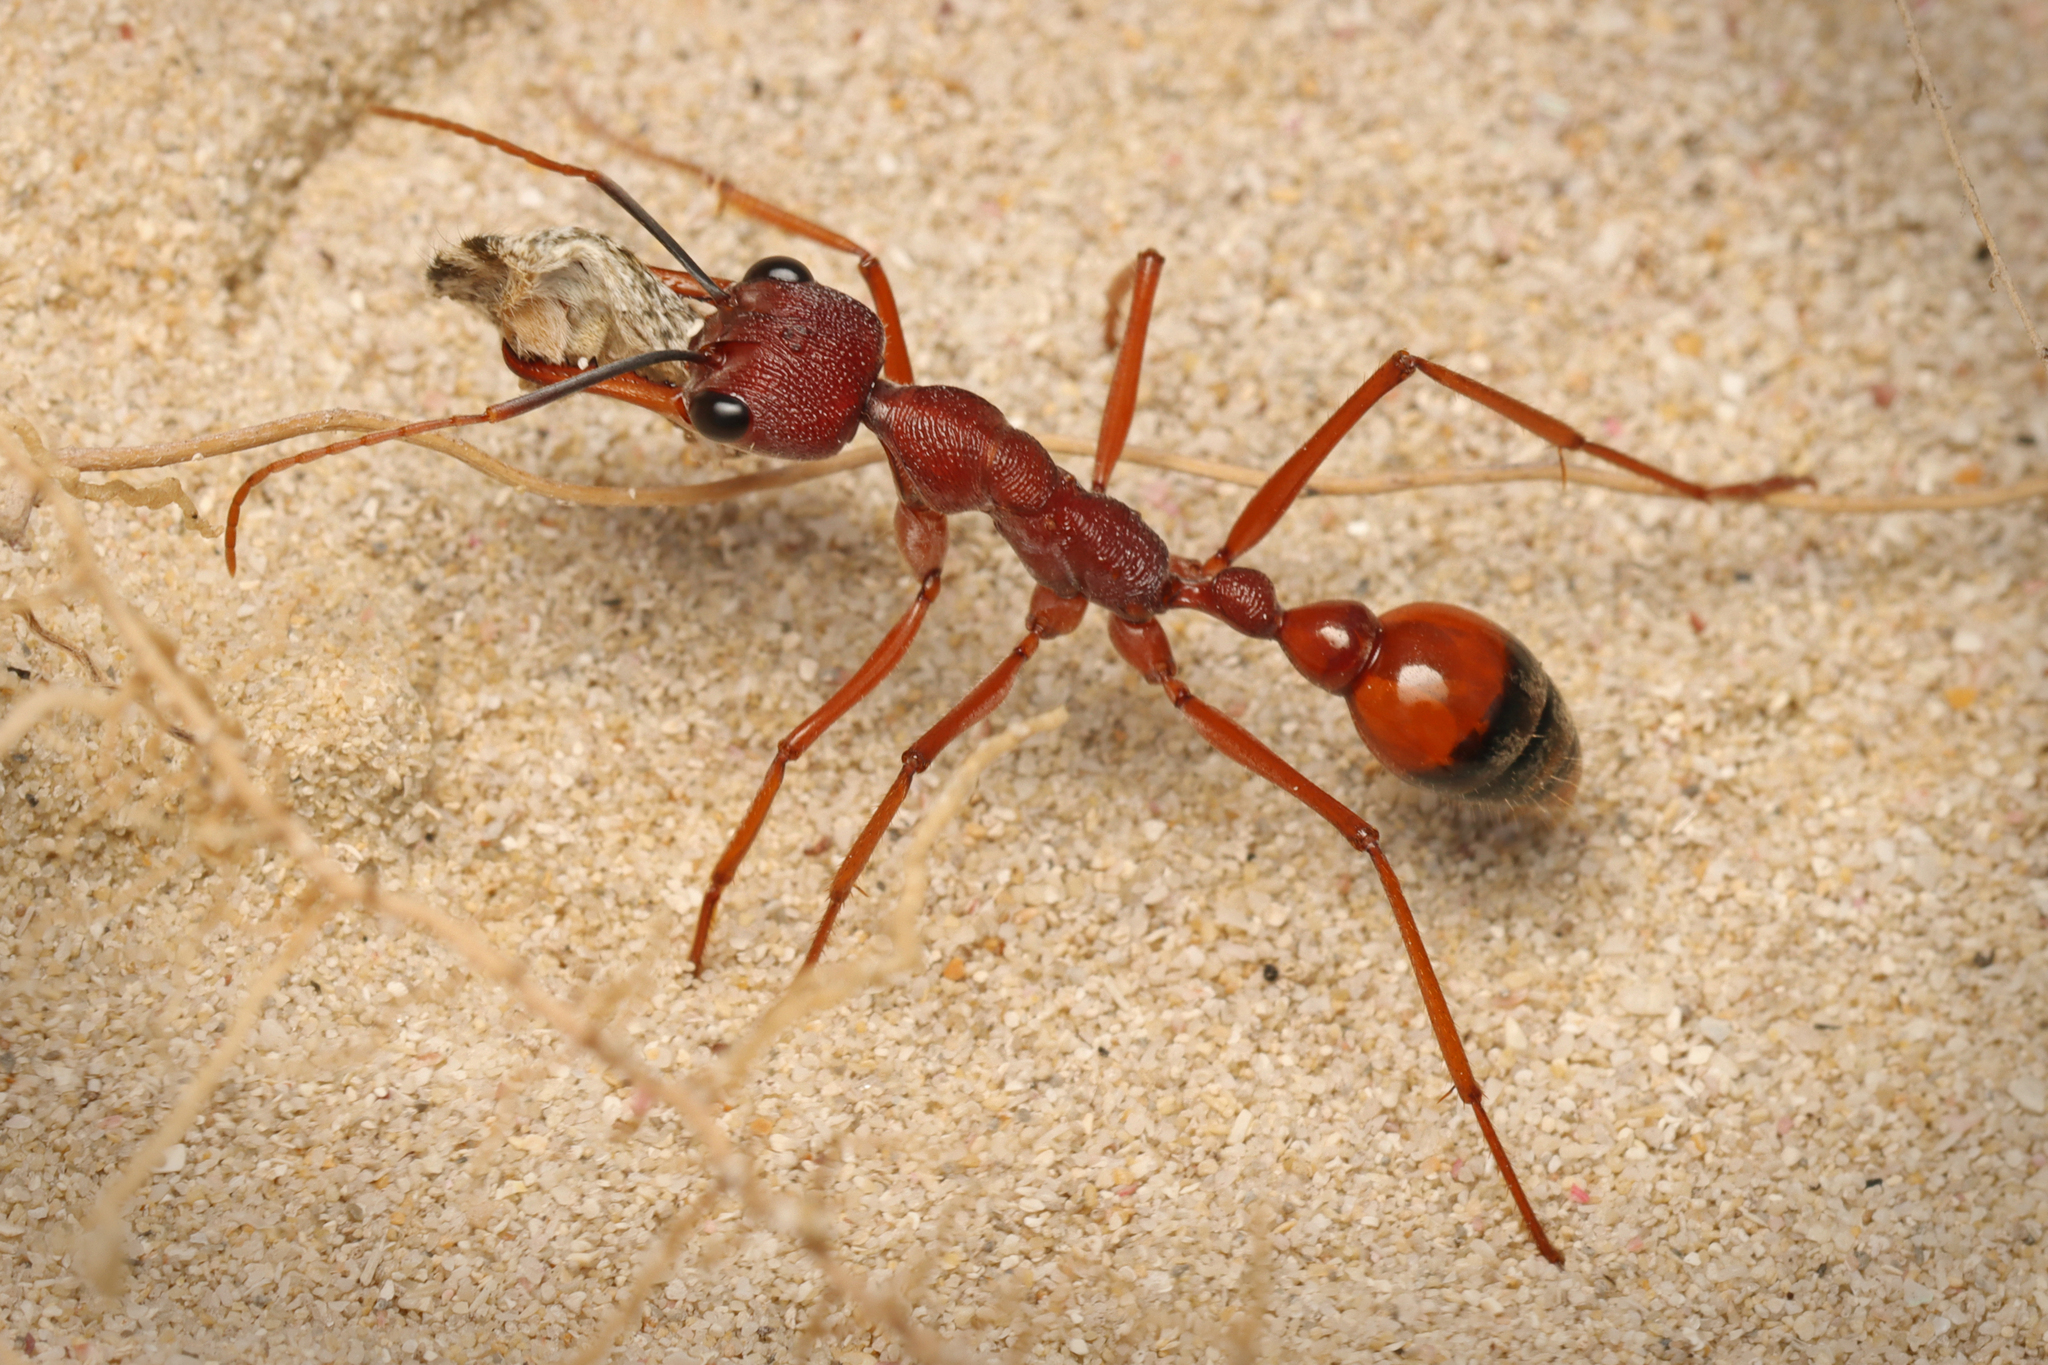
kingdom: Animalia
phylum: Arthropoda
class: Insecta
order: Hymenoptera
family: Formicidae
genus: Myrmecia
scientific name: Myrmecia nigriscapa
